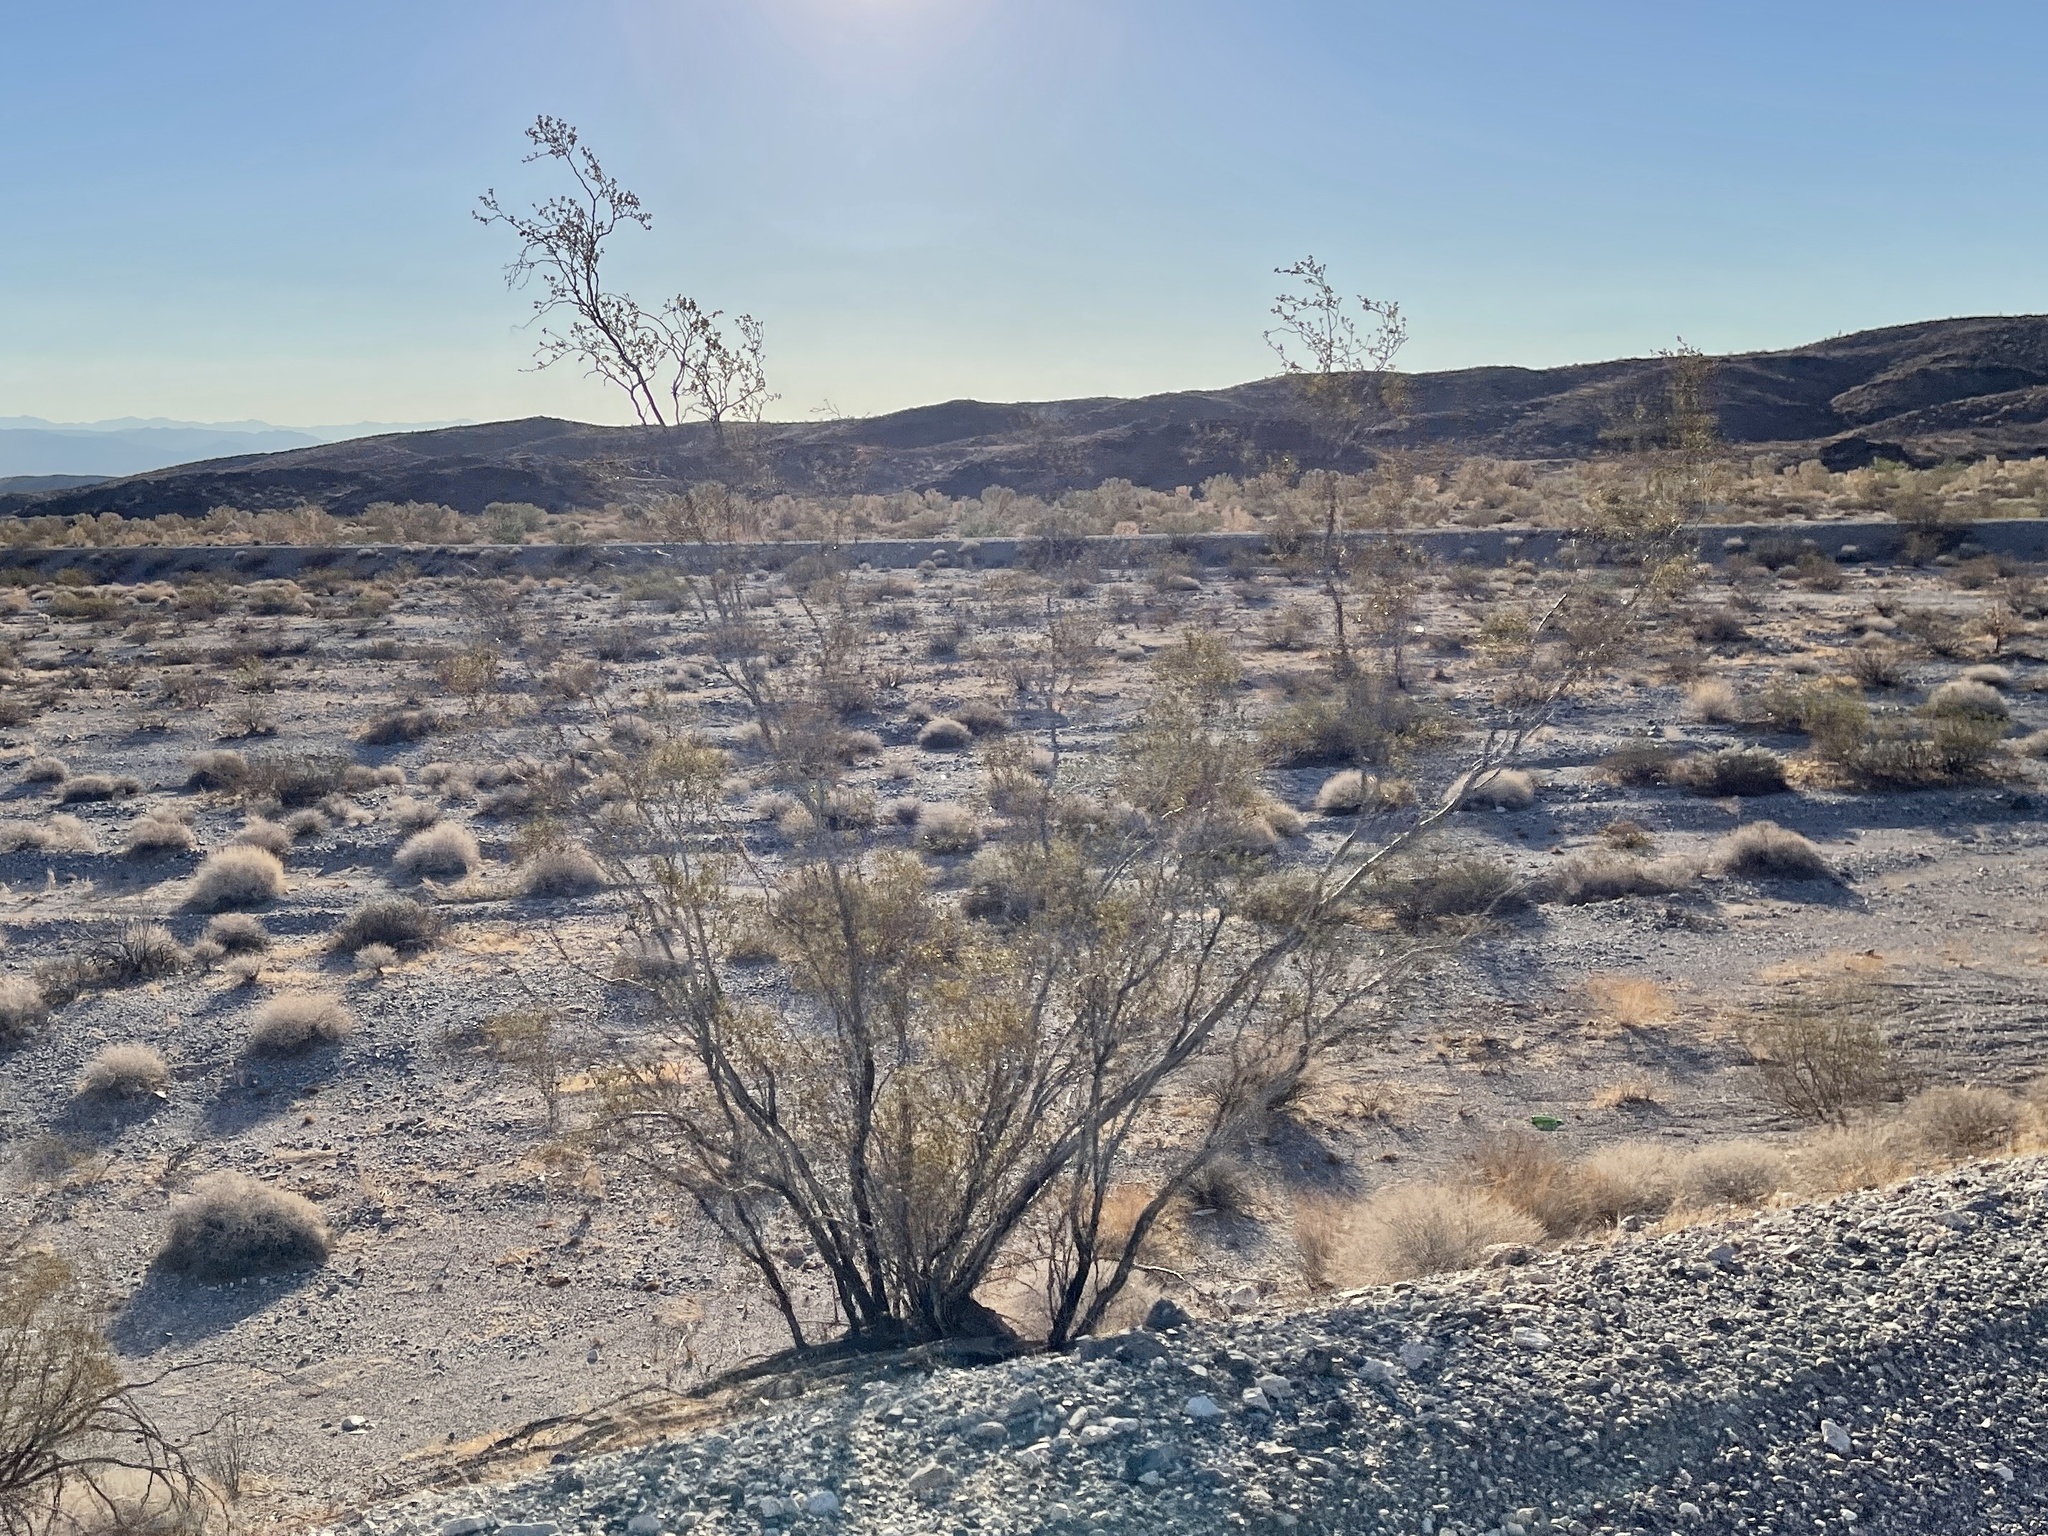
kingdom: Plantae
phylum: Tracheophyta
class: Magnoliopsida
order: Zygophyllales
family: Zygophyllaceae
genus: Larrea
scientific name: Larrea tridentata
